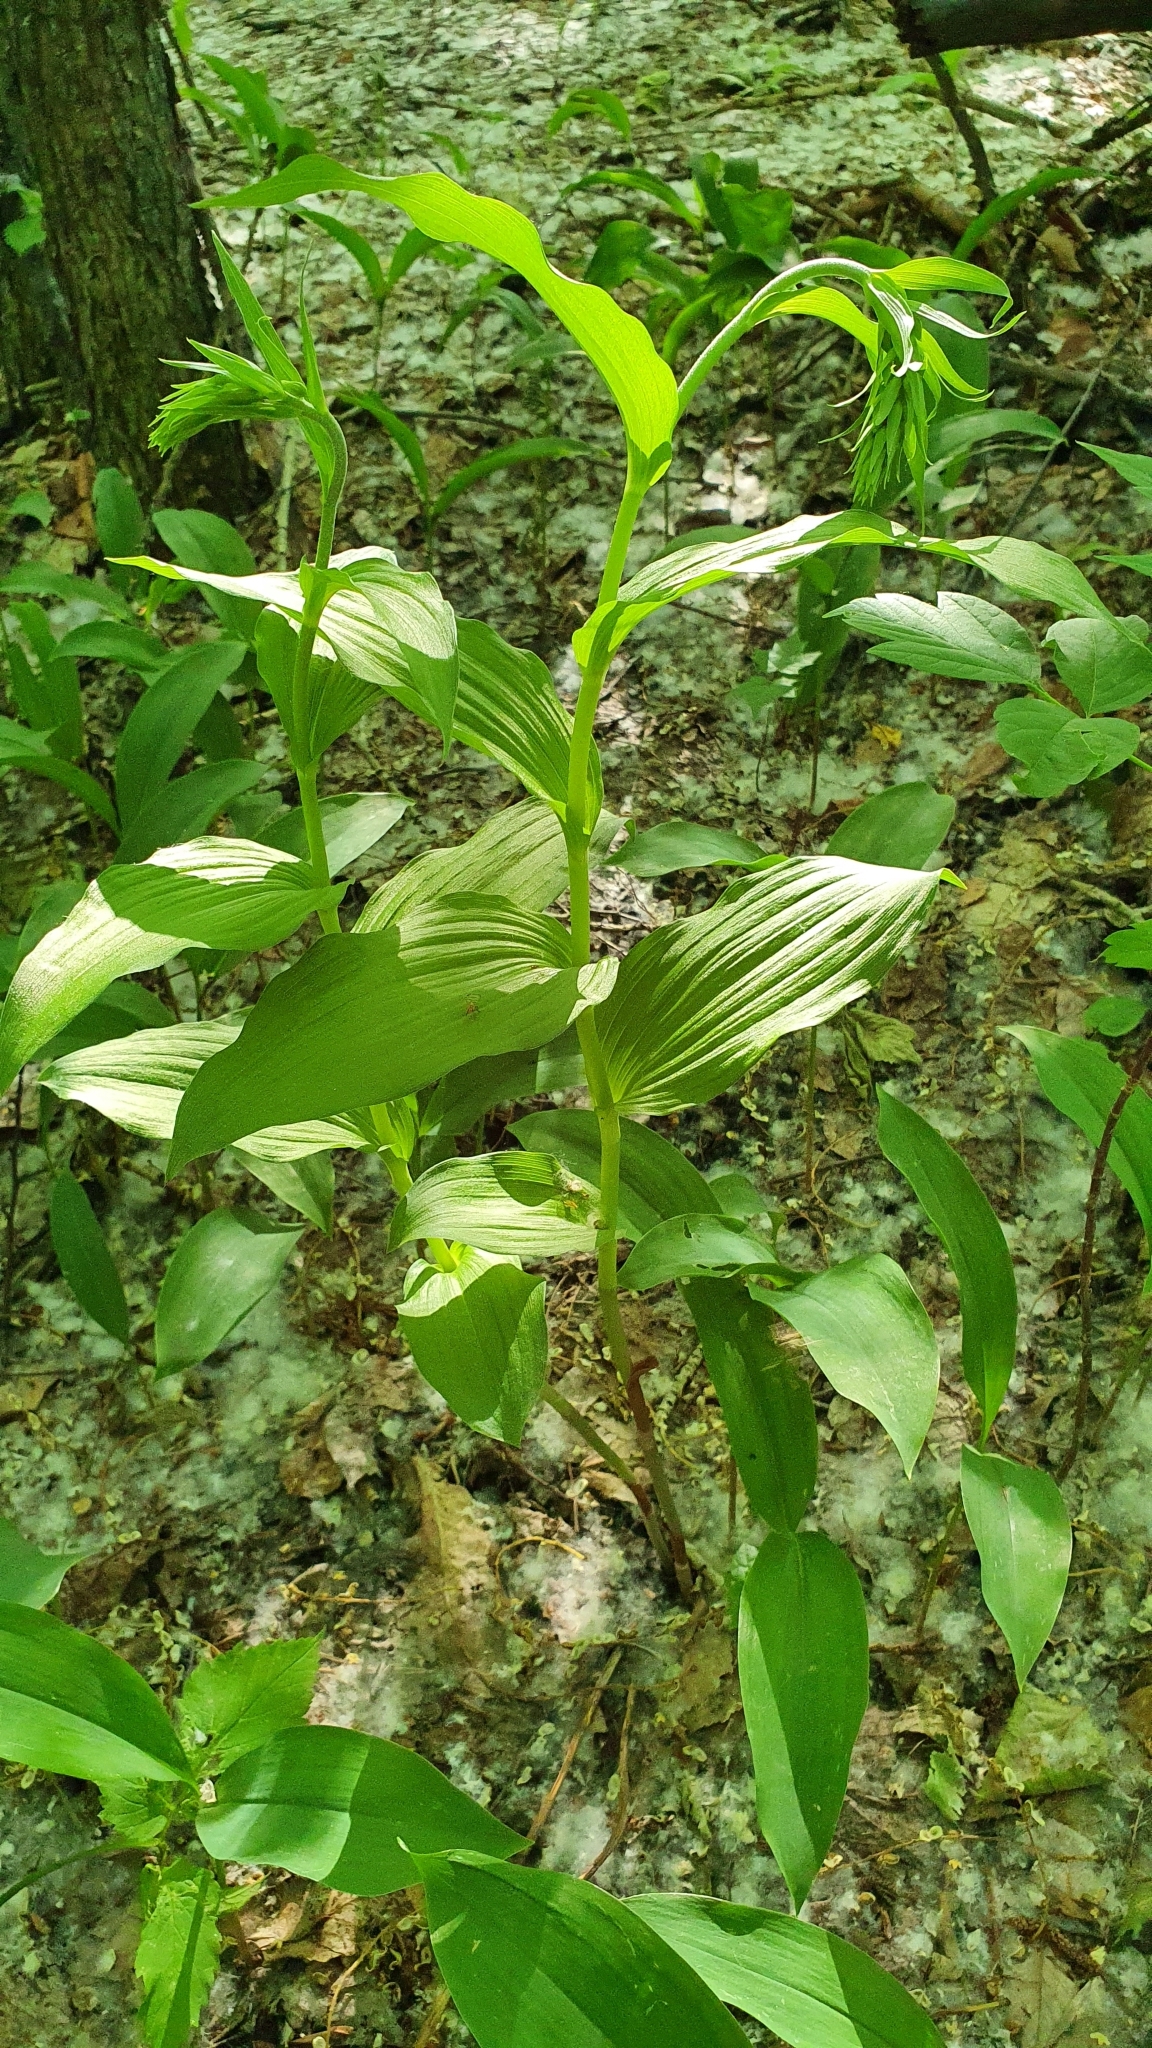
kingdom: Plantae
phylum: Tracheophyta
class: Liliopsida
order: Asparagales
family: Orchidaceae
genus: Epipactis
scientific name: Epipactis helleborine
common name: Broad-leaved helleborine
